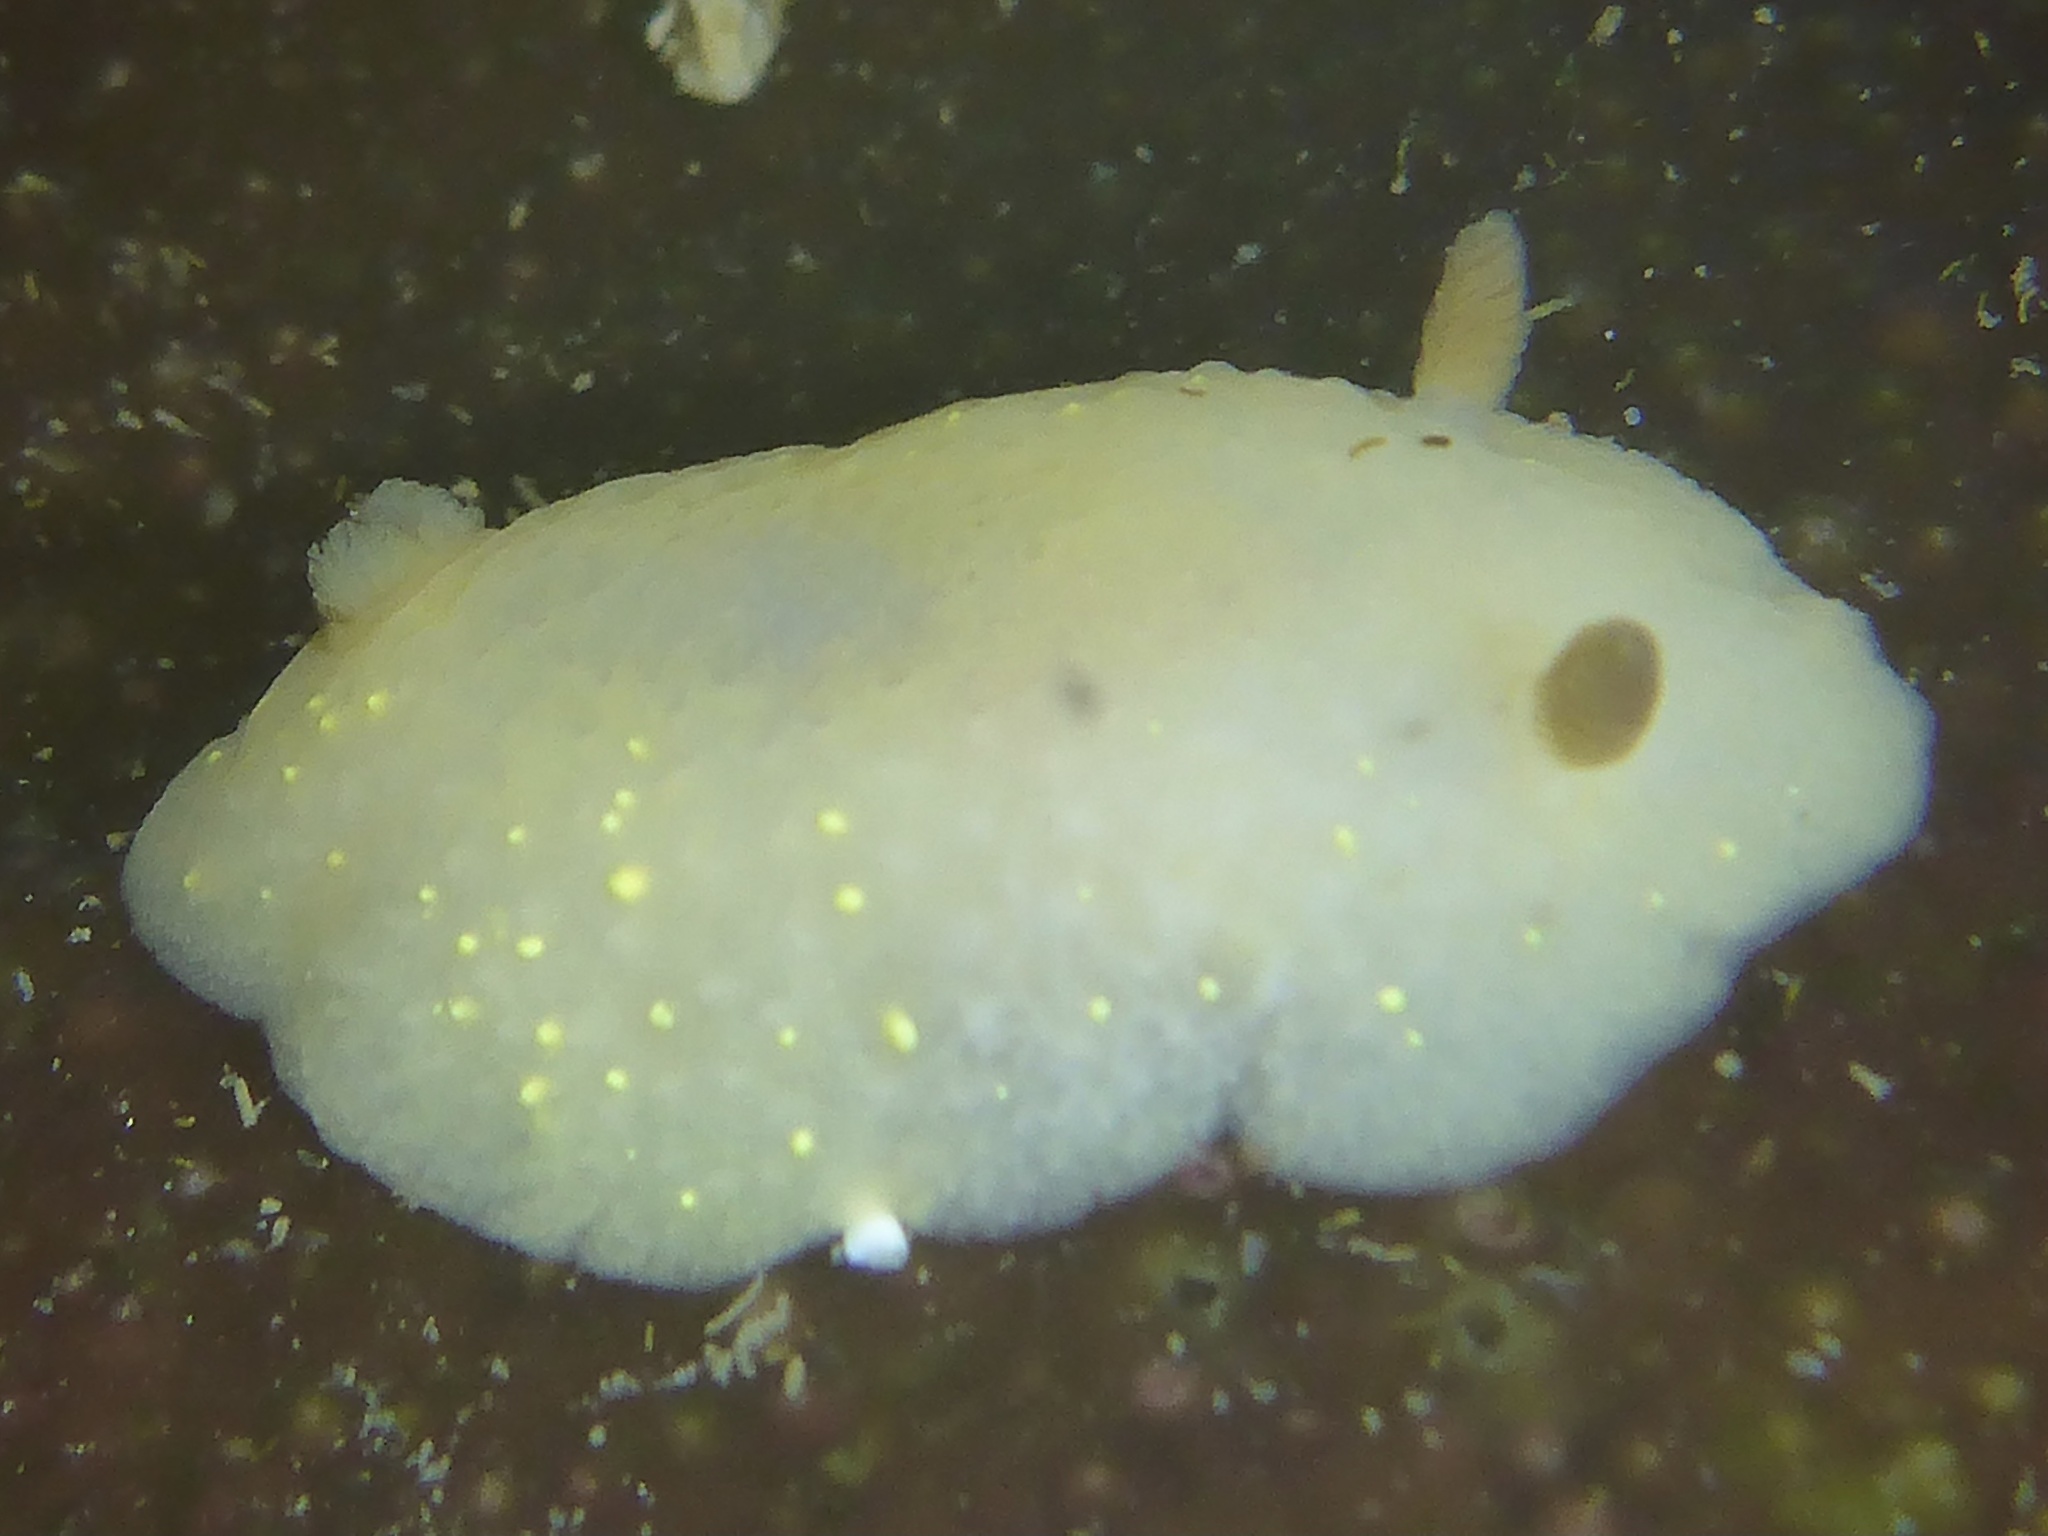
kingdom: Animalia
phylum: Mollusca
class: Gastropoda
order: Nudibranchia
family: Cadlinidae
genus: Cadlina
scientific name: Cadlina modesta
